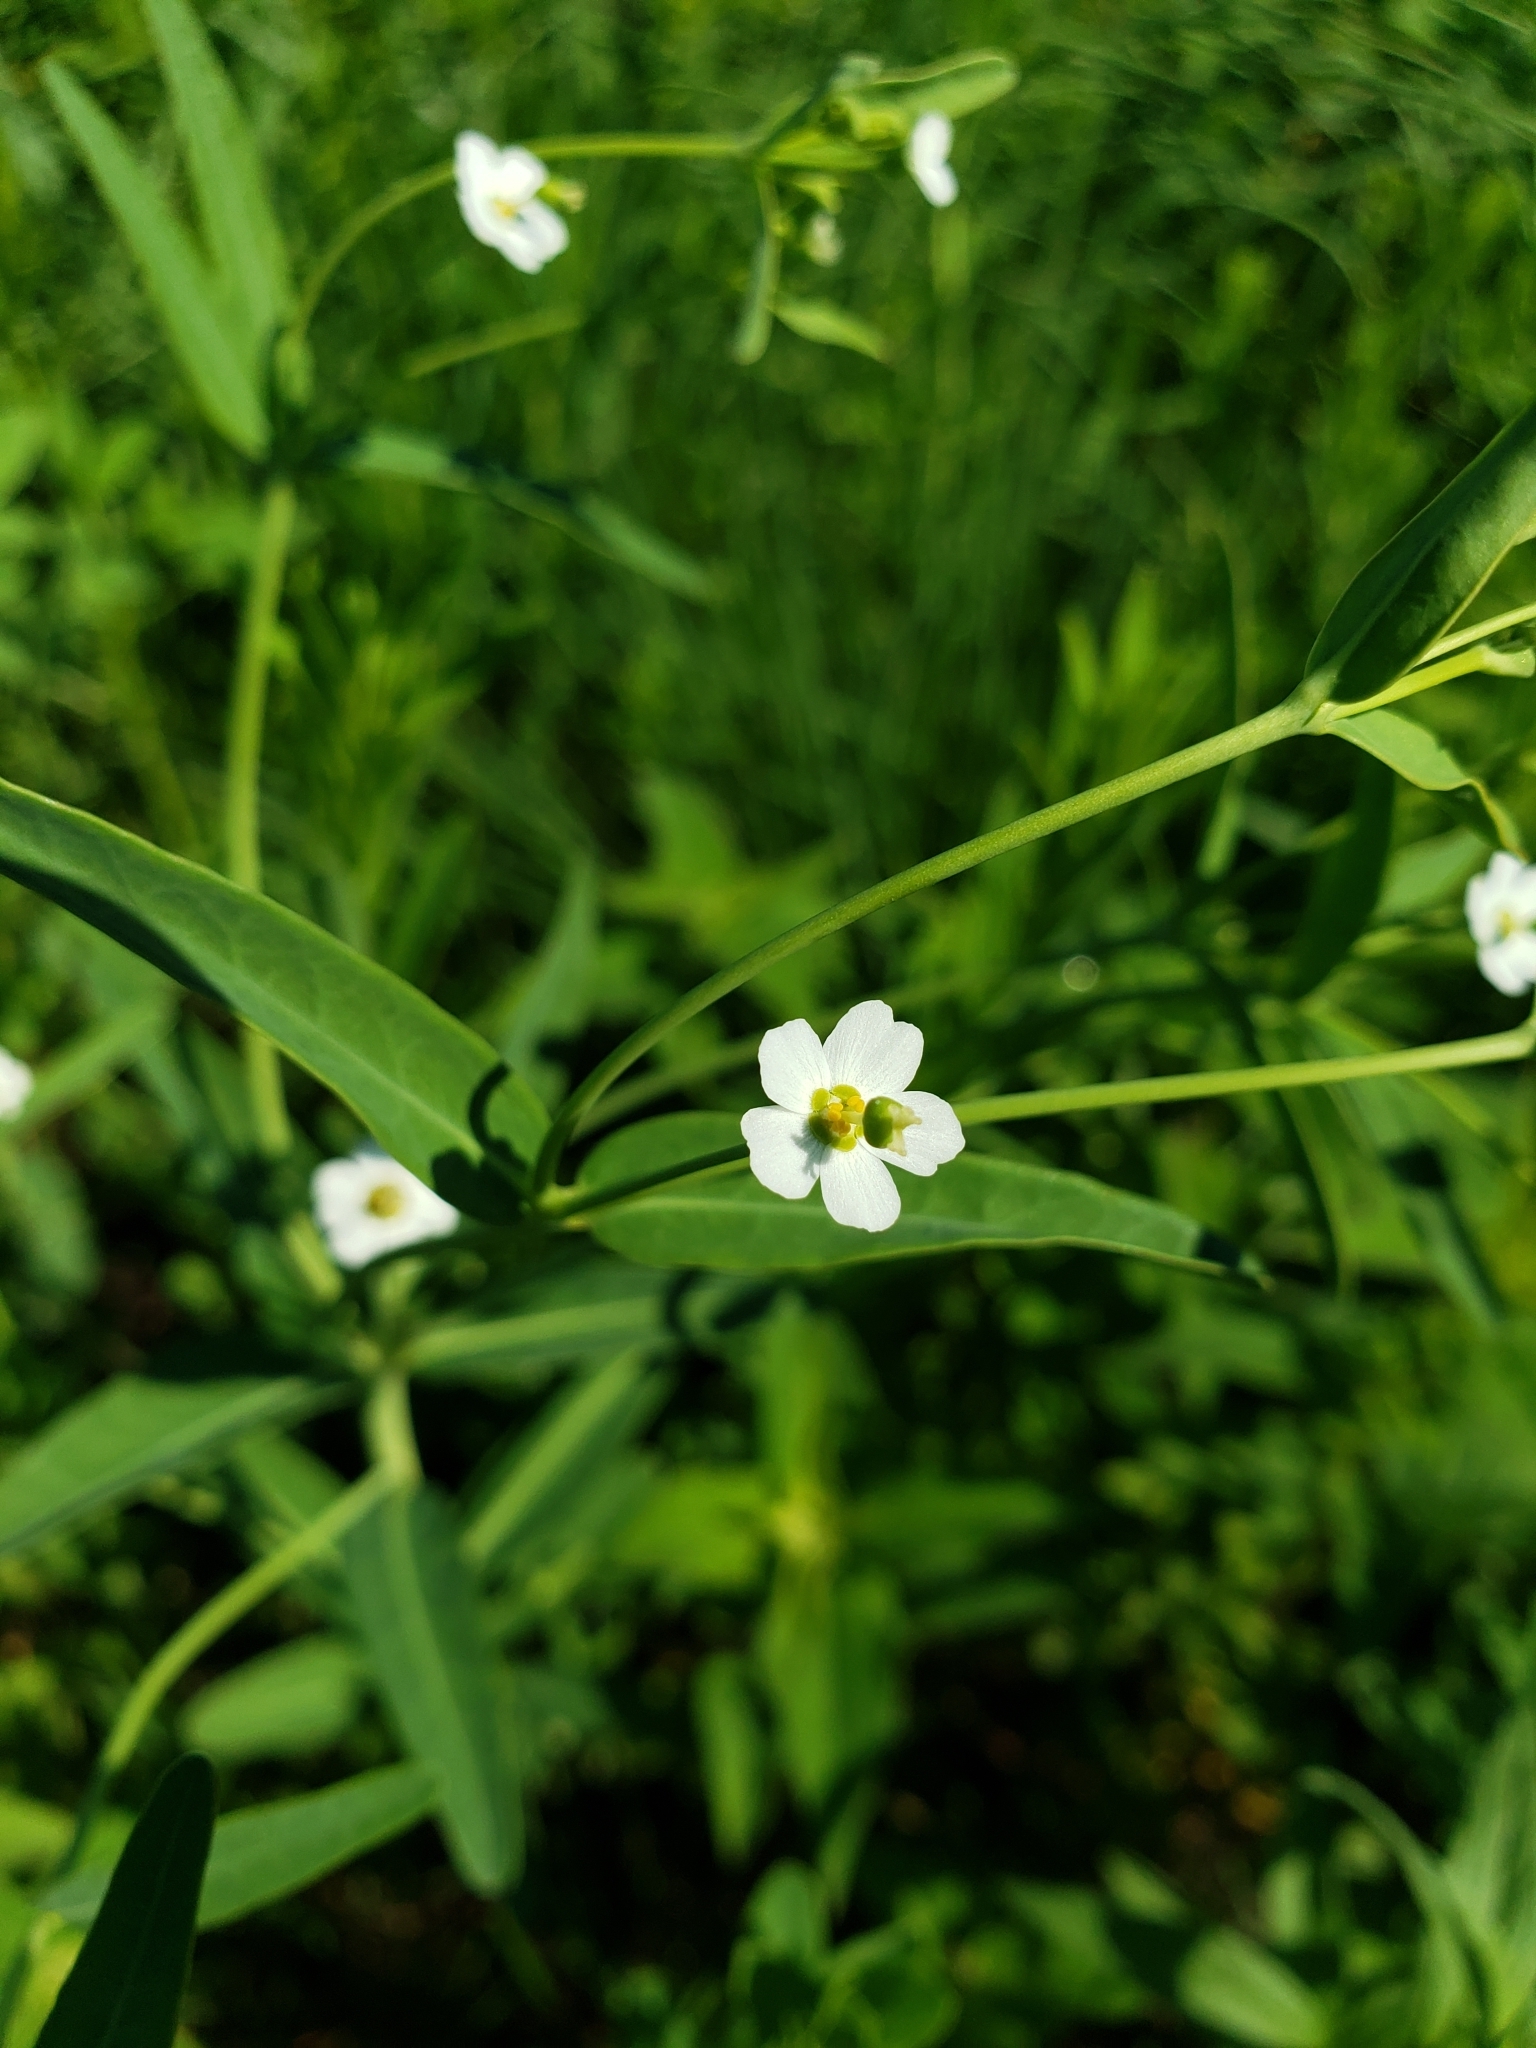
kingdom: Plantae
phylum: Tracheophyta
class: Magnoliopsida
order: Malpighiales
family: Euphorbiaceae
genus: Euphorbia
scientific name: Euphorbia corollata
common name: Flowering spurge
